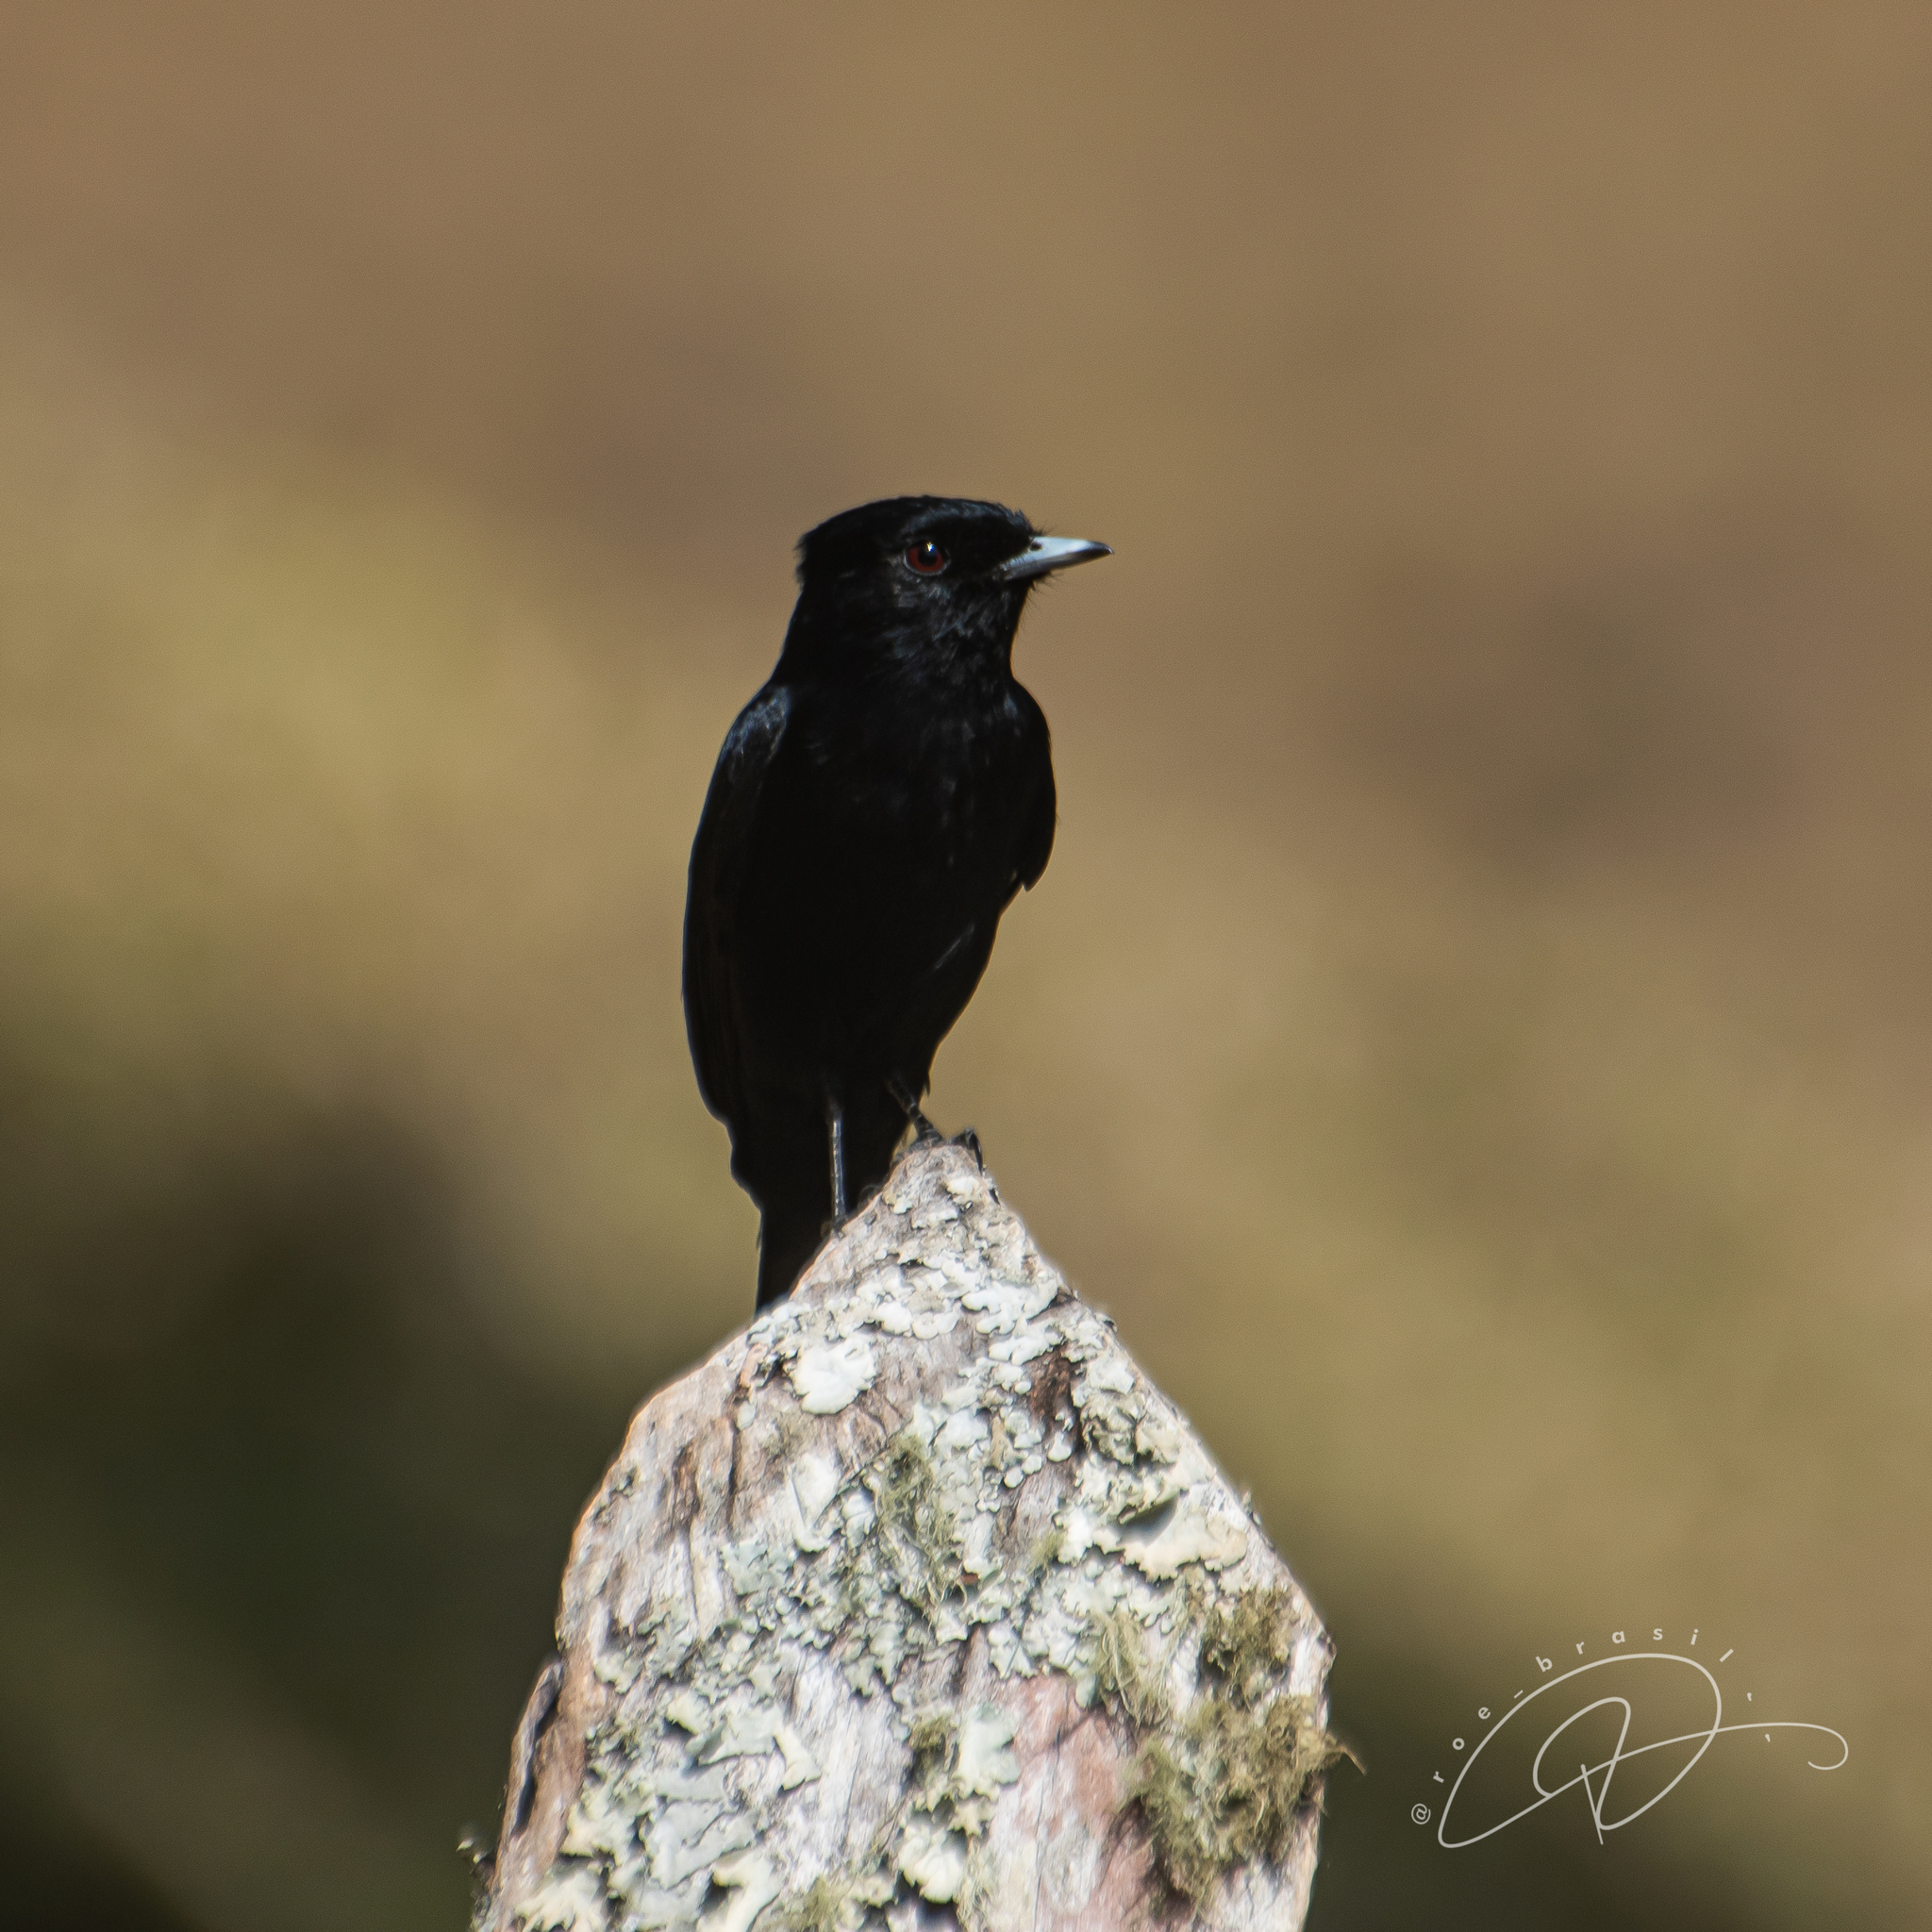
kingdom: Animalia
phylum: Chordata
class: Aves
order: Passeriformes
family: Tyrannidae
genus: Knipolegus
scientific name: Knipolegus nigerrimus
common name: Velvety black tyrant
